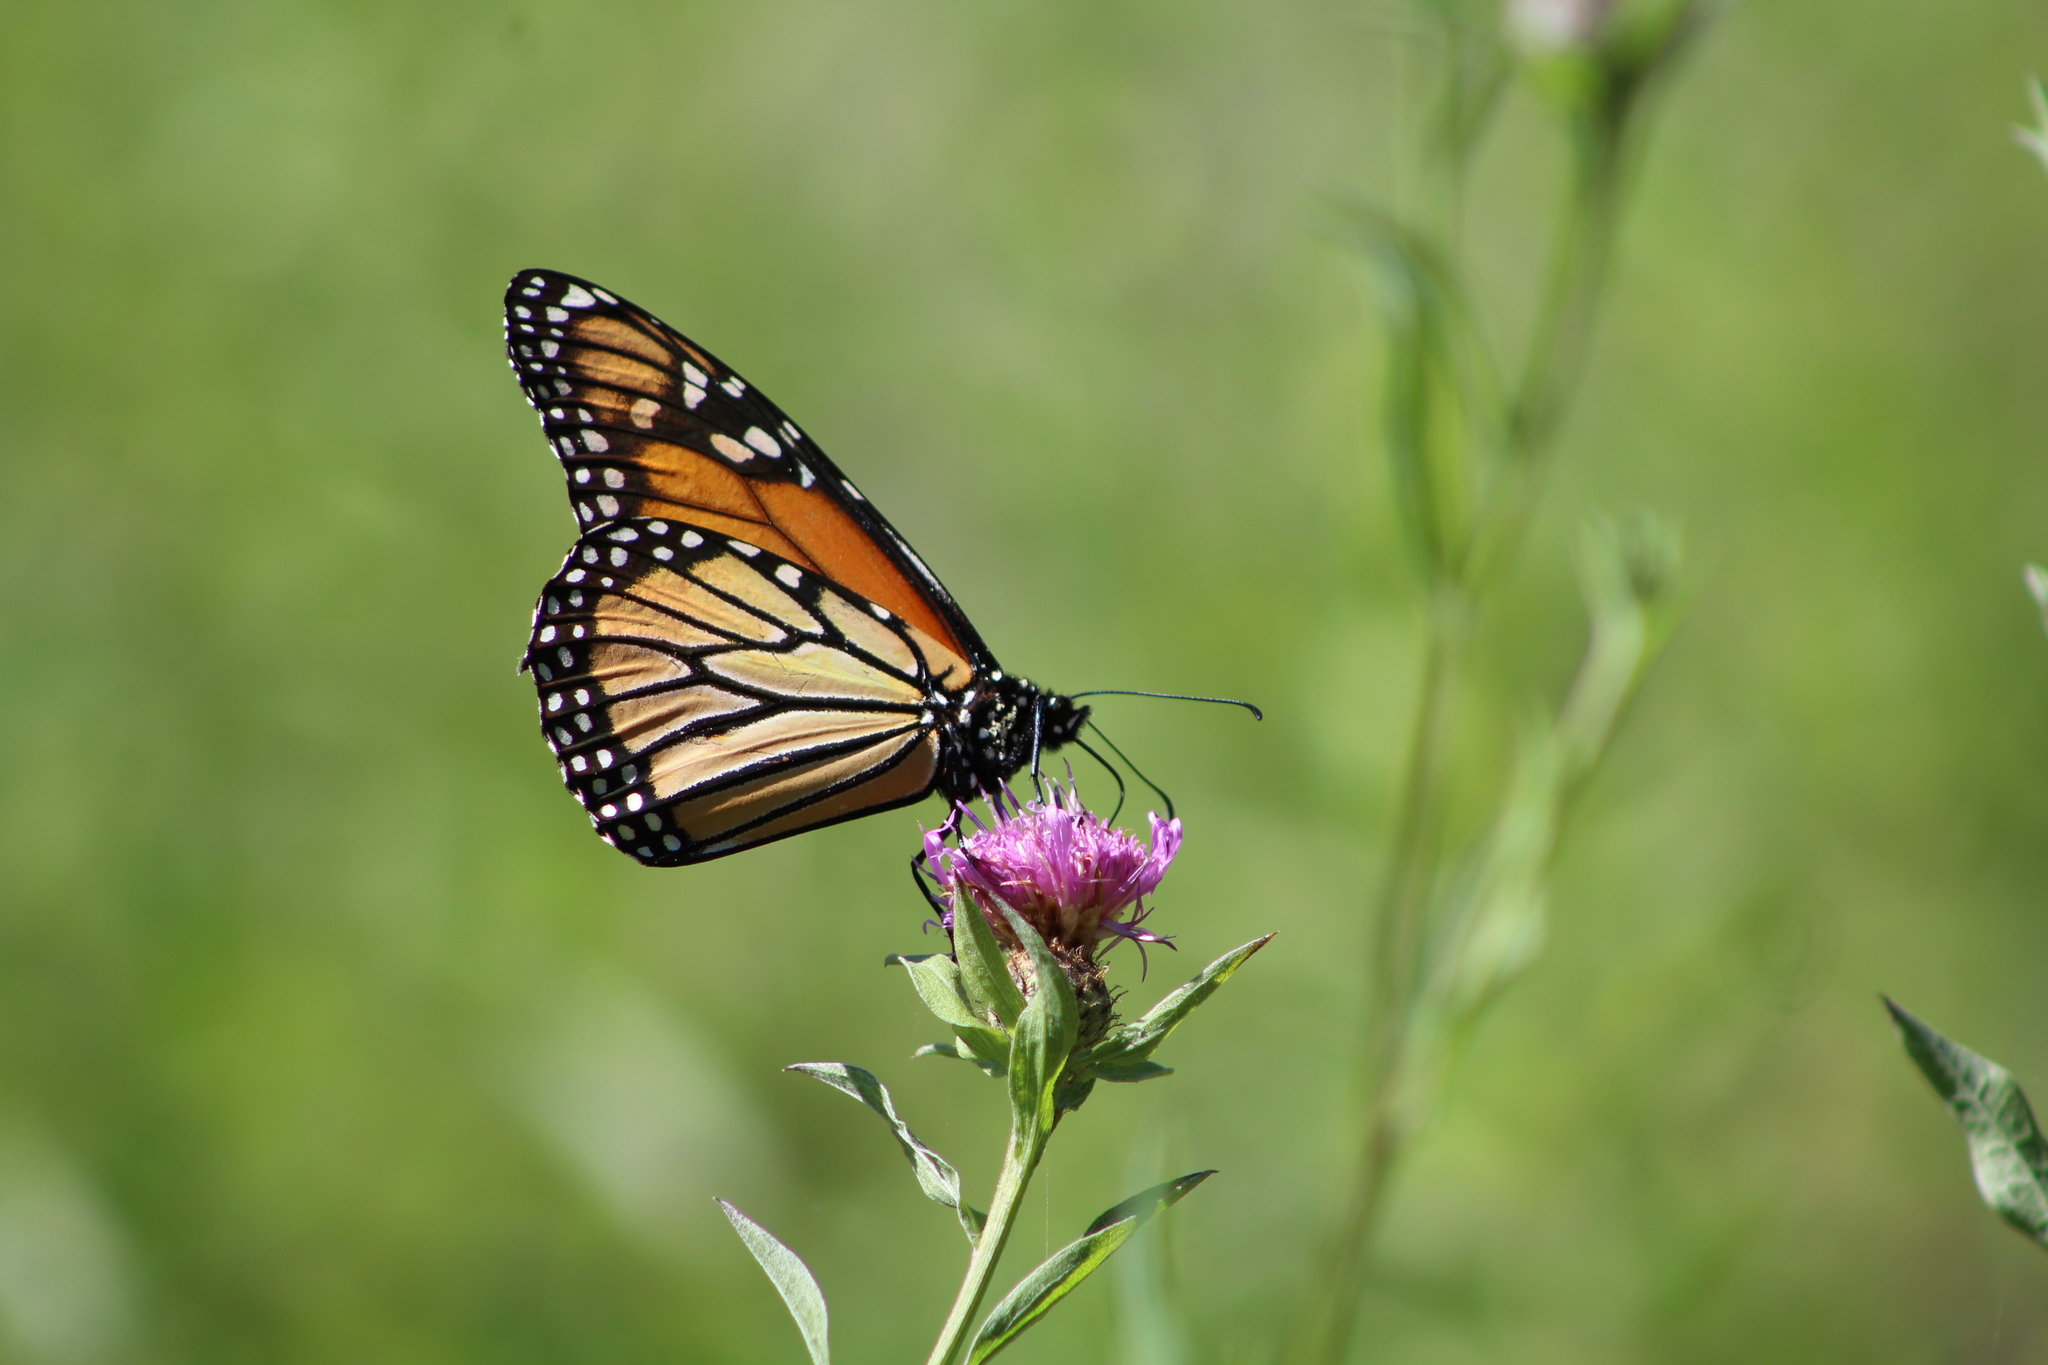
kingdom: Animalia
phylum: Arthropoda
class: Insecta
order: Lepidoptera
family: Nymphalidae
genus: Danaus
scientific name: Danaus plexippus
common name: Monarch
